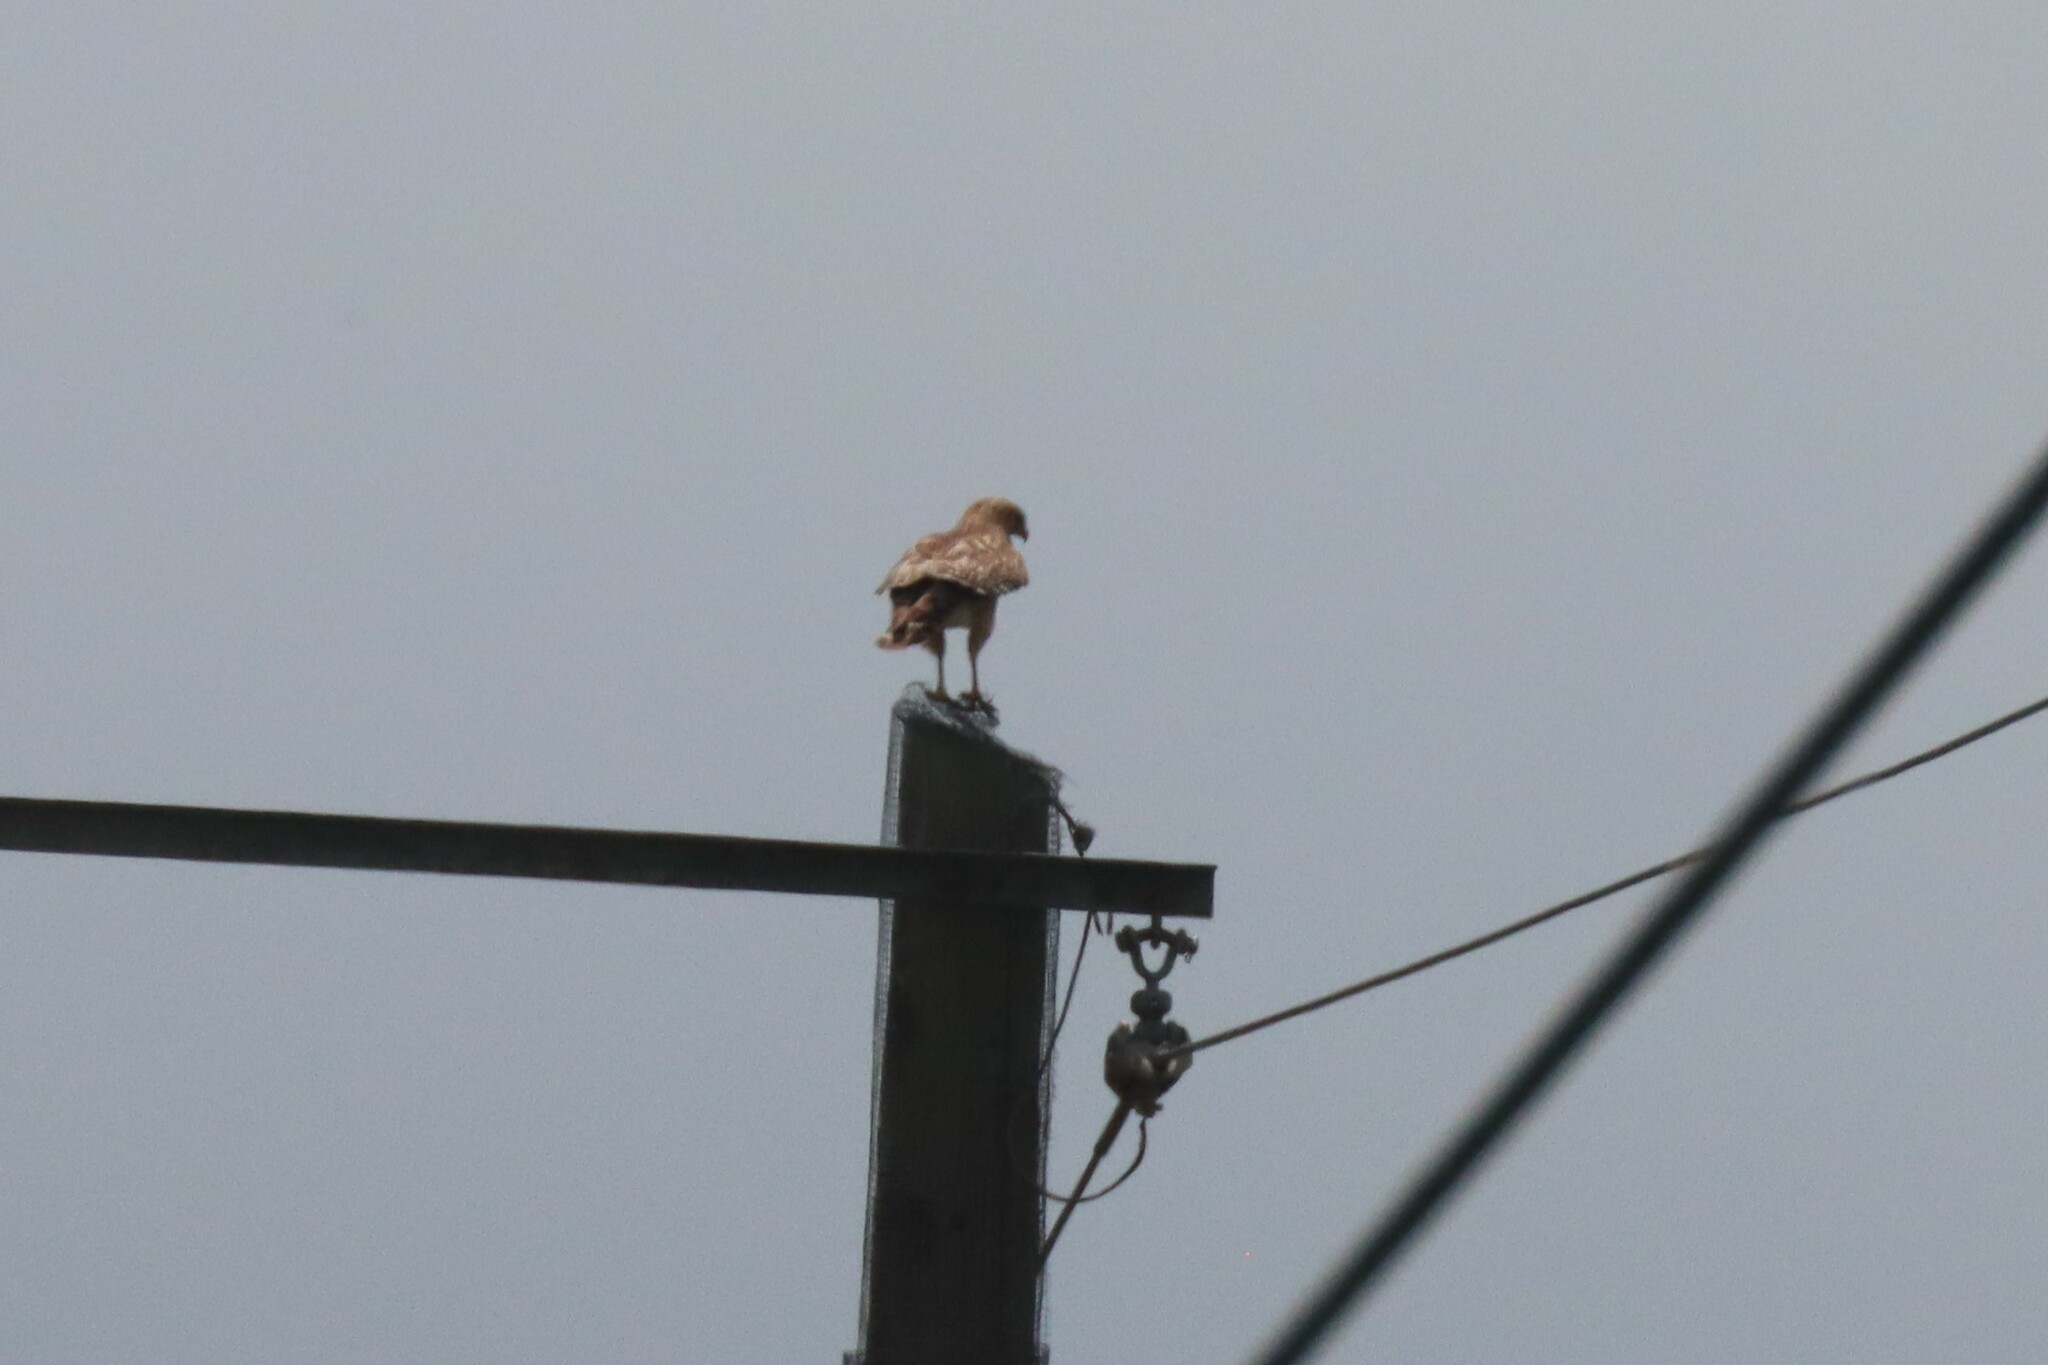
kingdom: Animalia
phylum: Chordata
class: Aves
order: Accipitriformes
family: Accipitridae
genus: Buteo
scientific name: Buteo lineatus
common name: Red-shouldered hawk
